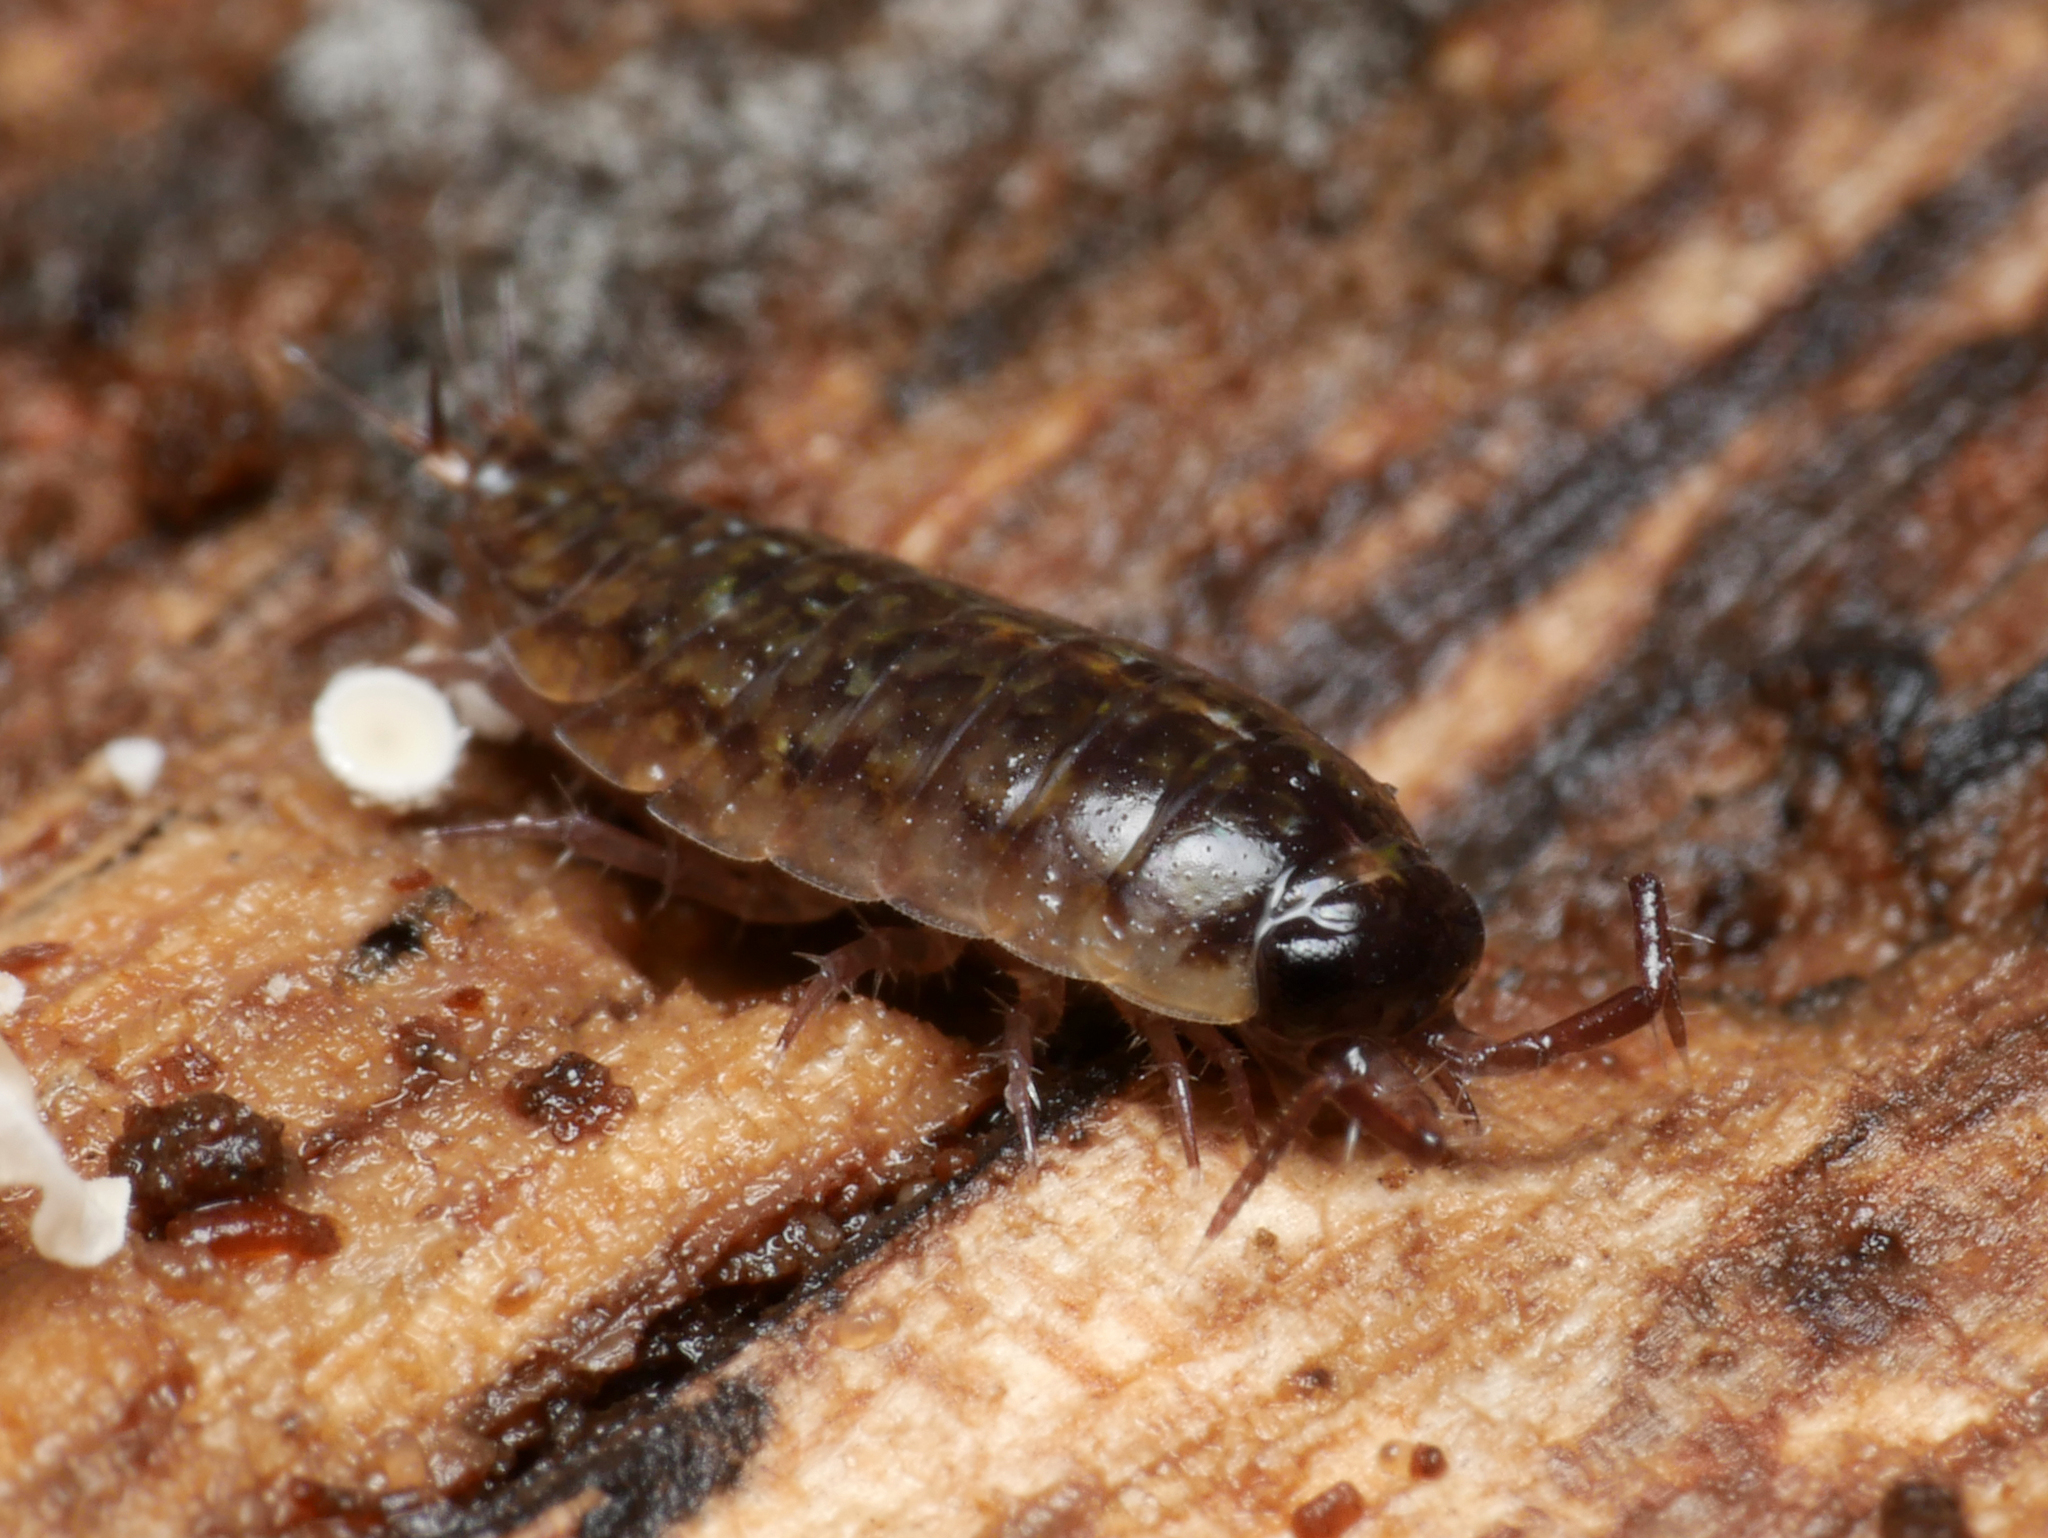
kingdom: Animalia
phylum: Arthropoda
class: Malacostraca
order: Isopoda
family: Ligiidae
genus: Ligidium
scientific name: Ligidium hypnorum
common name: Moss slater
